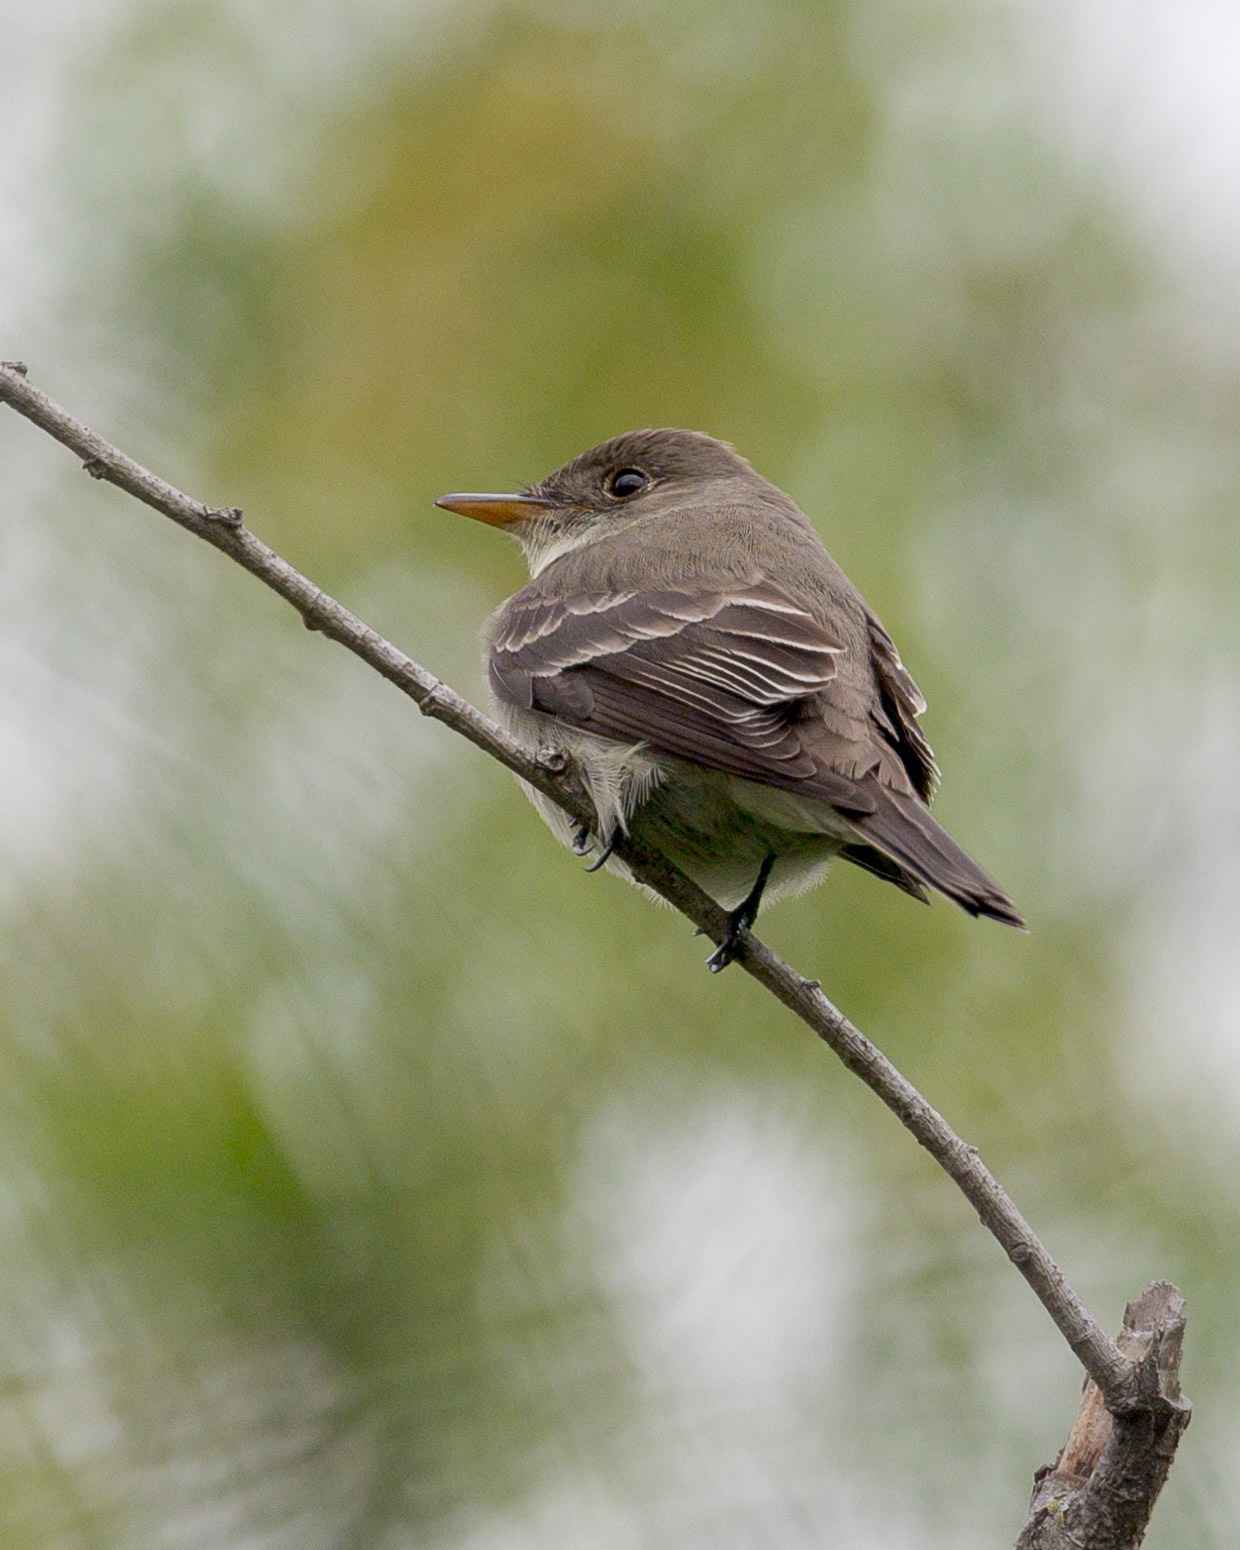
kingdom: Animalia
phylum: Chordata
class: Aves
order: Passeriformes
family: Tyrannidae
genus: Contopus
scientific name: Contopus virens
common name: Eastern wood-pewee
